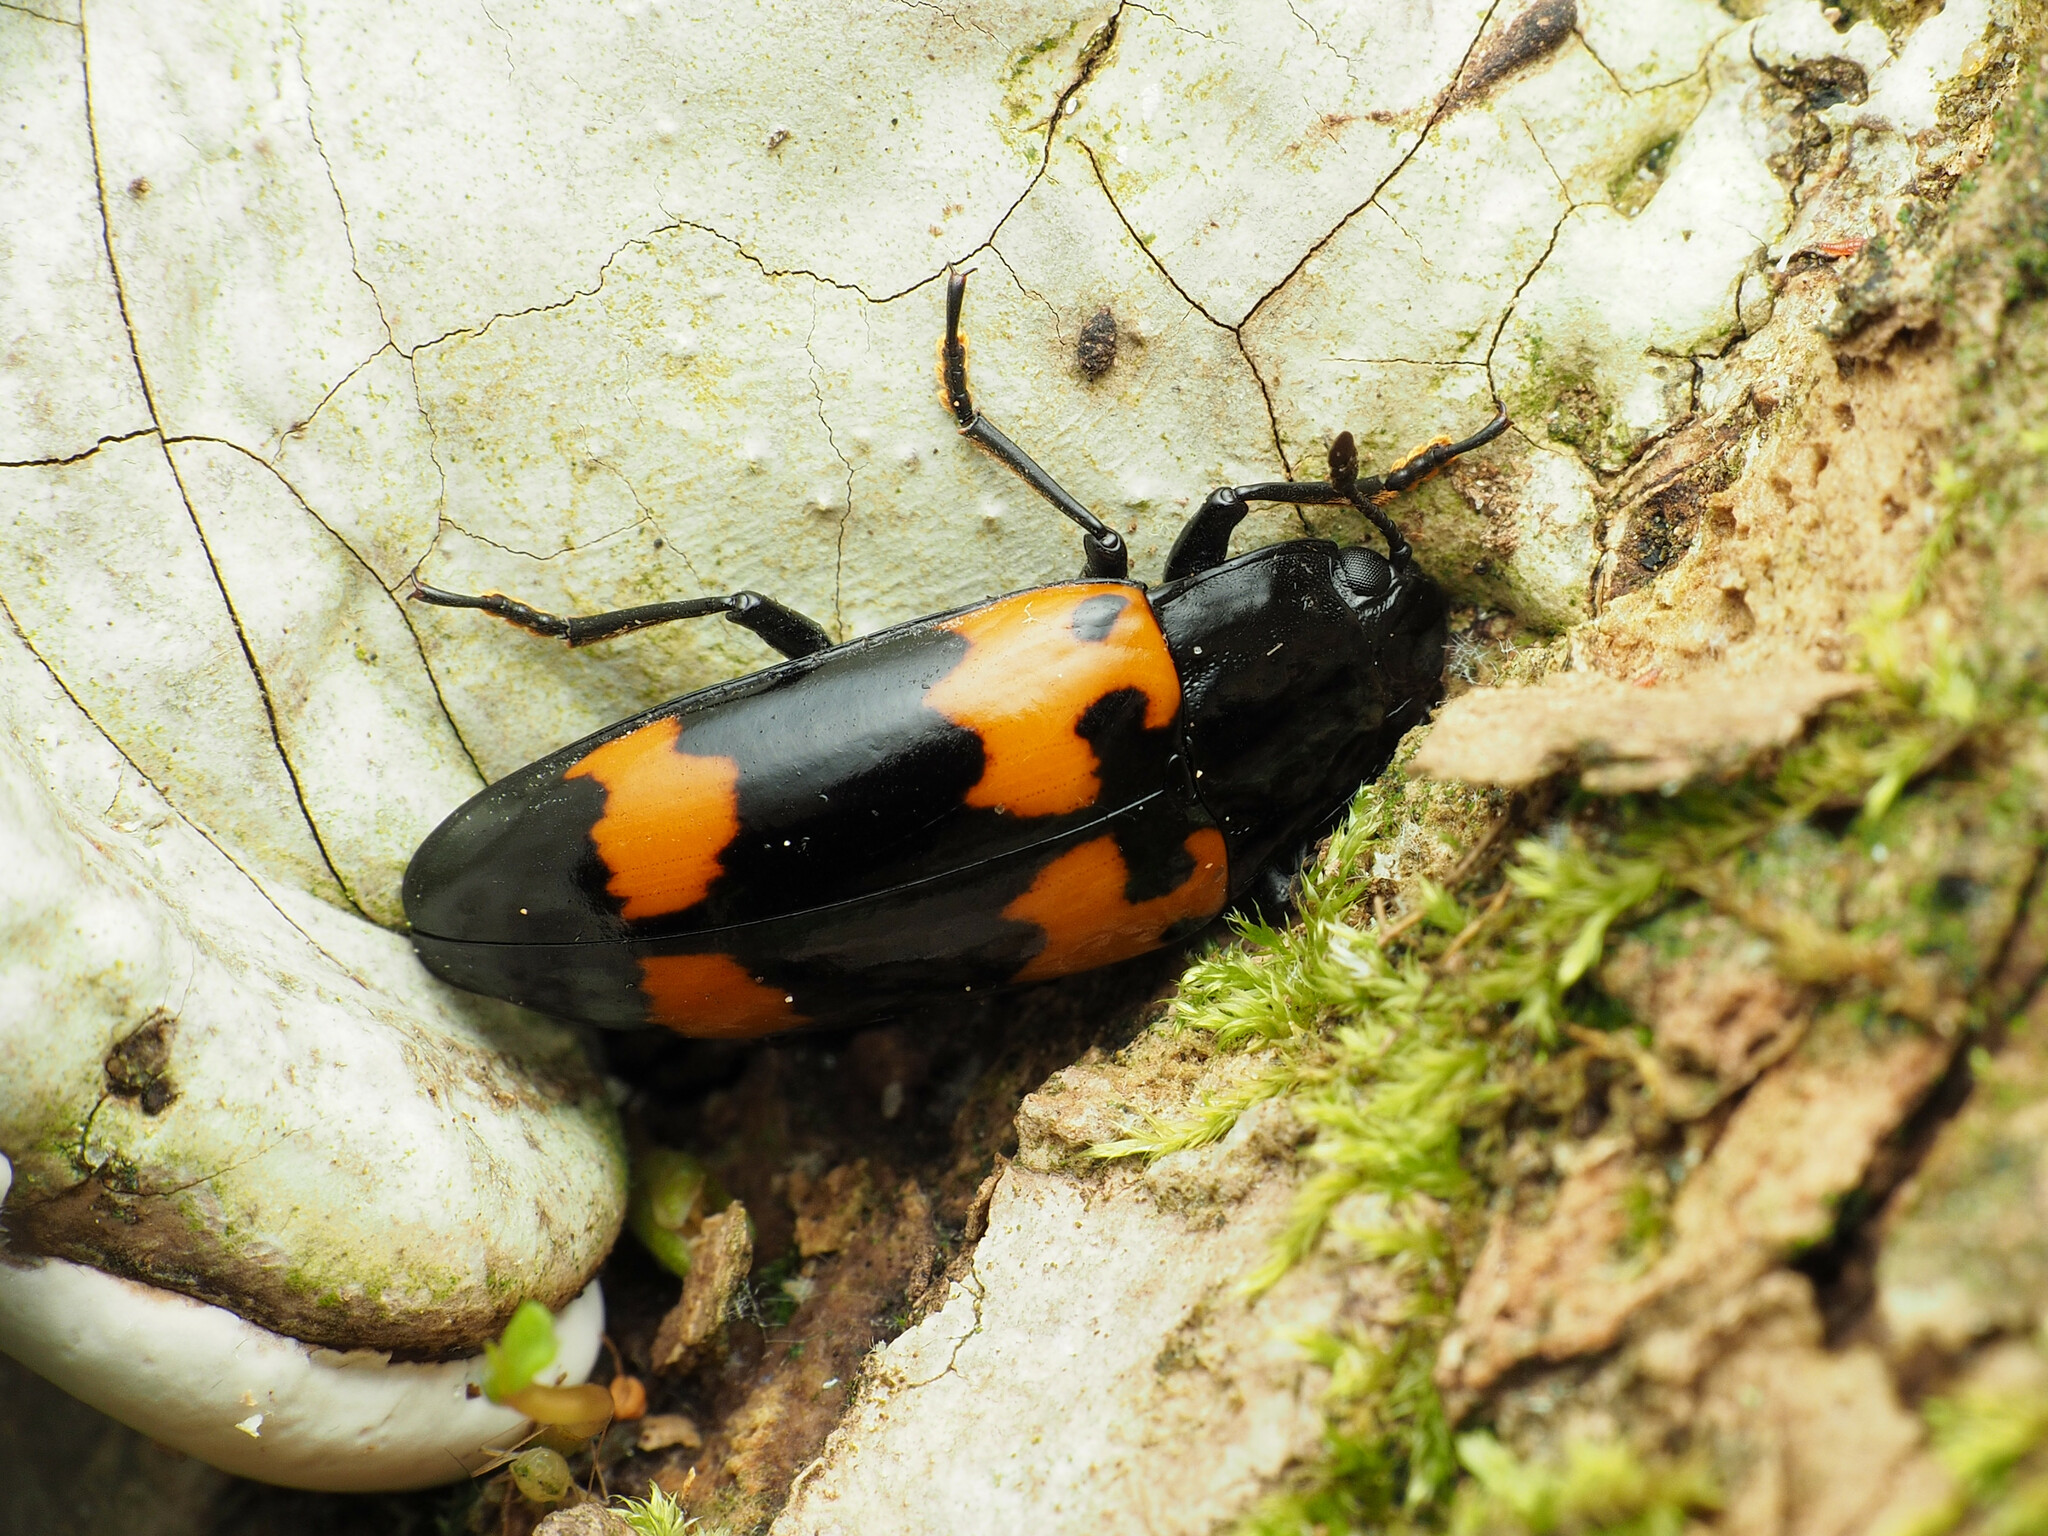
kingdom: Animalia
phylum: Arthropoda
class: Insecta
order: Coleoptera
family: Erotylidae
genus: Megalodacne
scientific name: Megalodacne heros
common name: Pleasing fungus beetle
